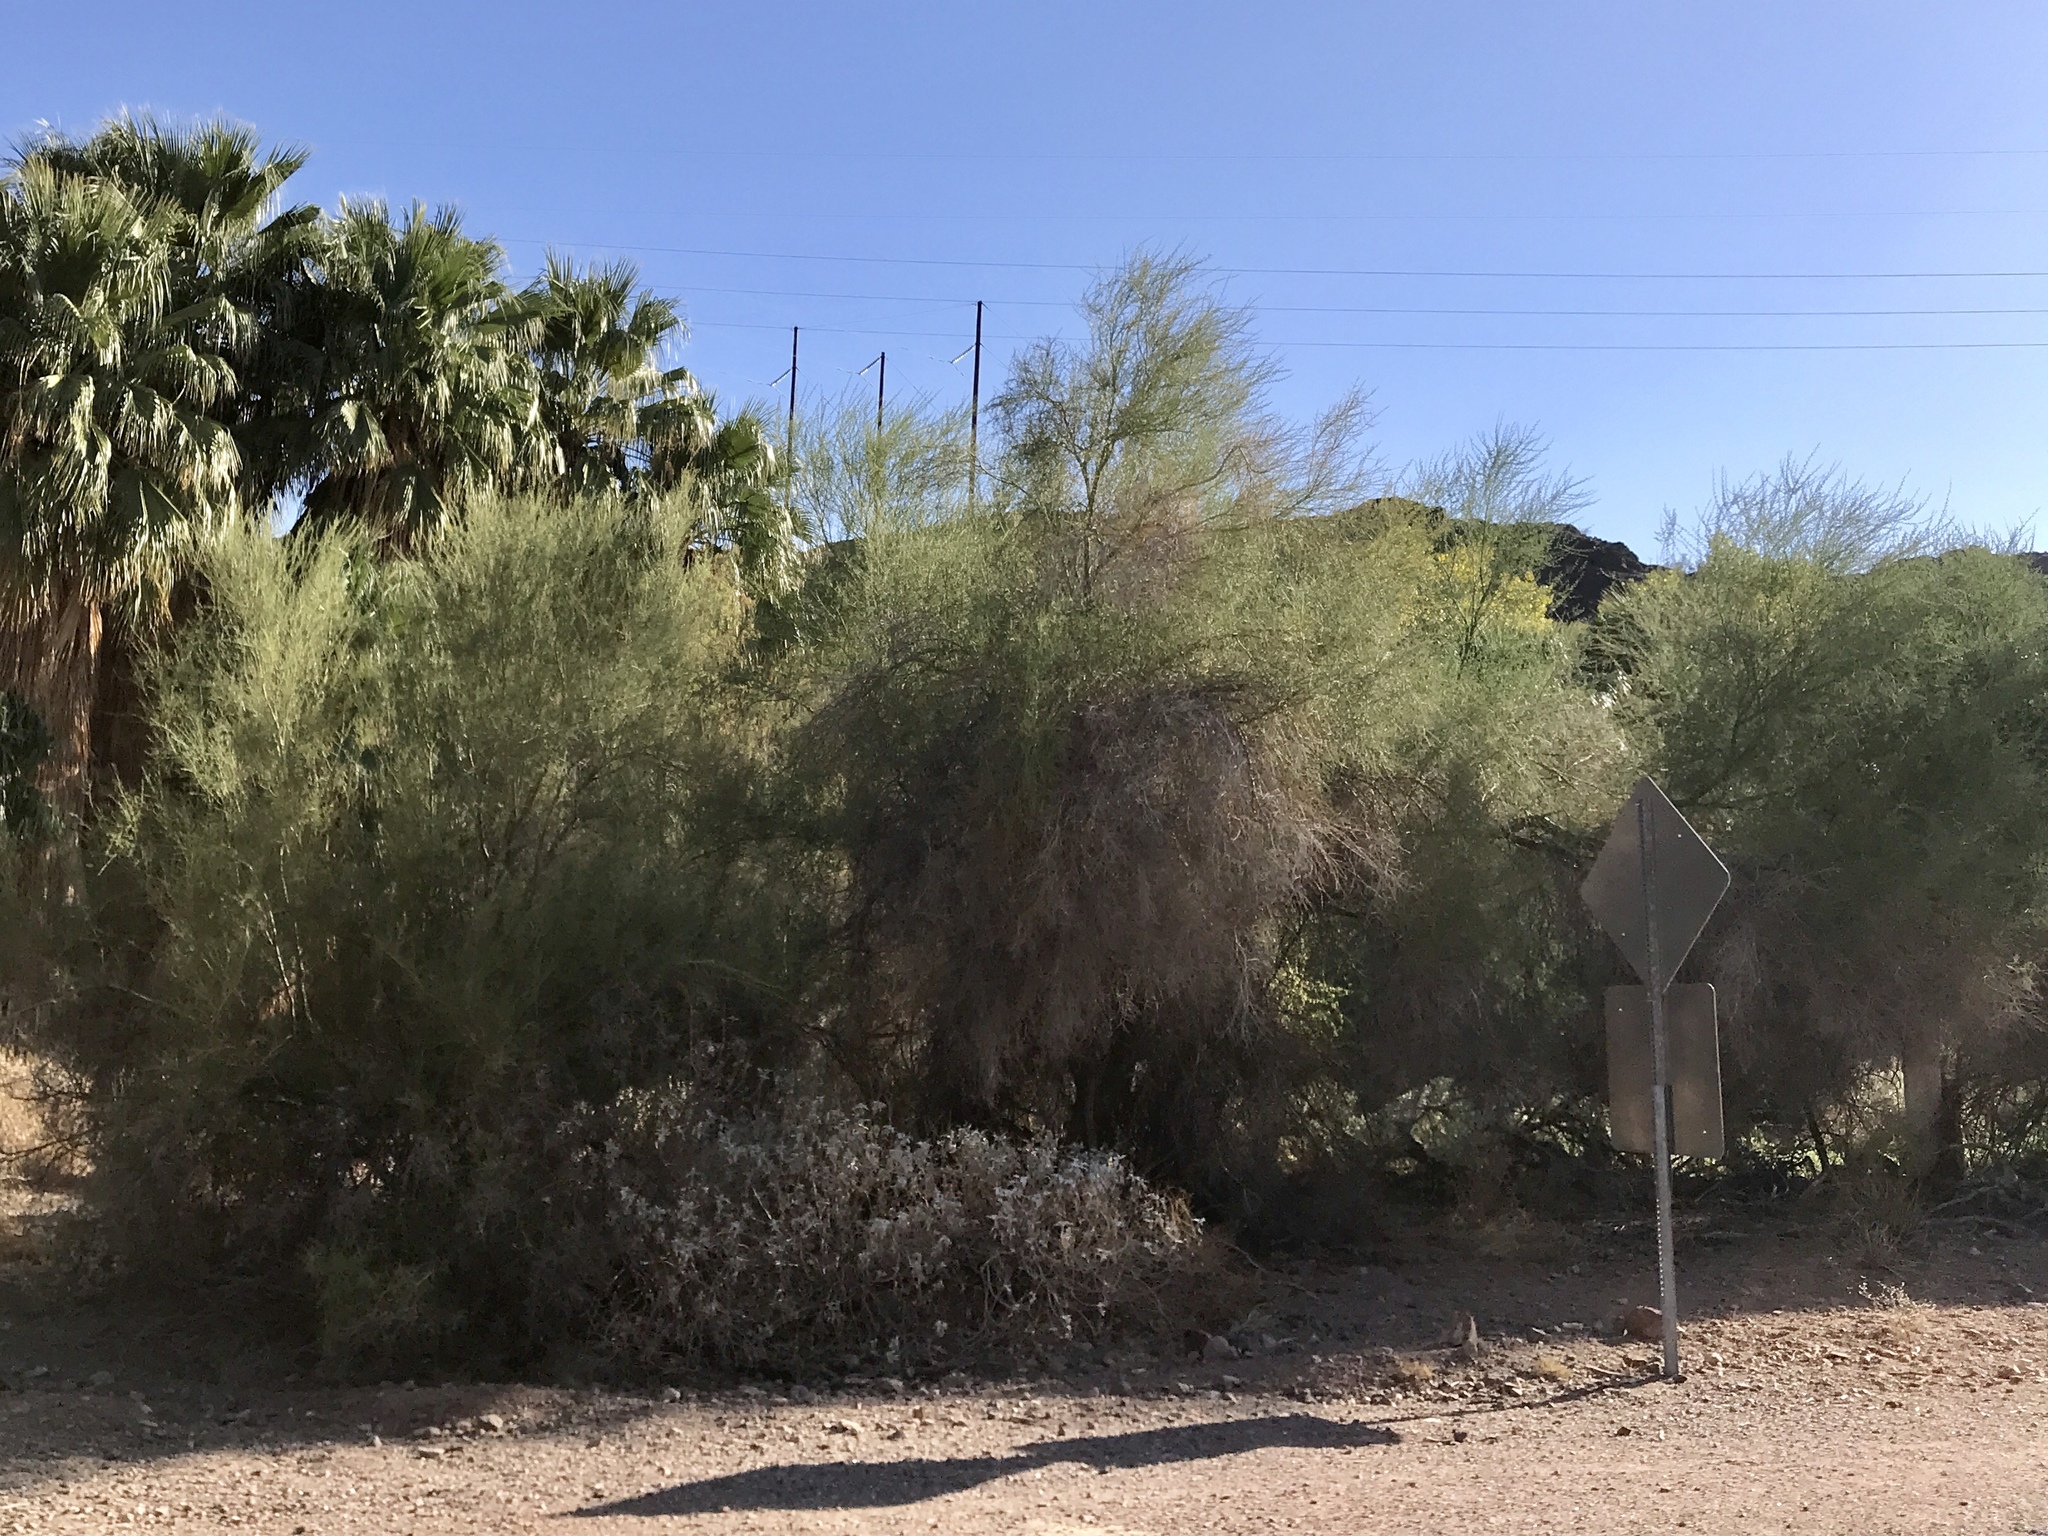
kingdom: Plantae
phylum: Tracheophyta
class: Magnoliopsida
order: Fabales
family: Fabaceae
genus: Parkinsonia
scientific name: Parkinsonia florida
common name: Blue paloverde
